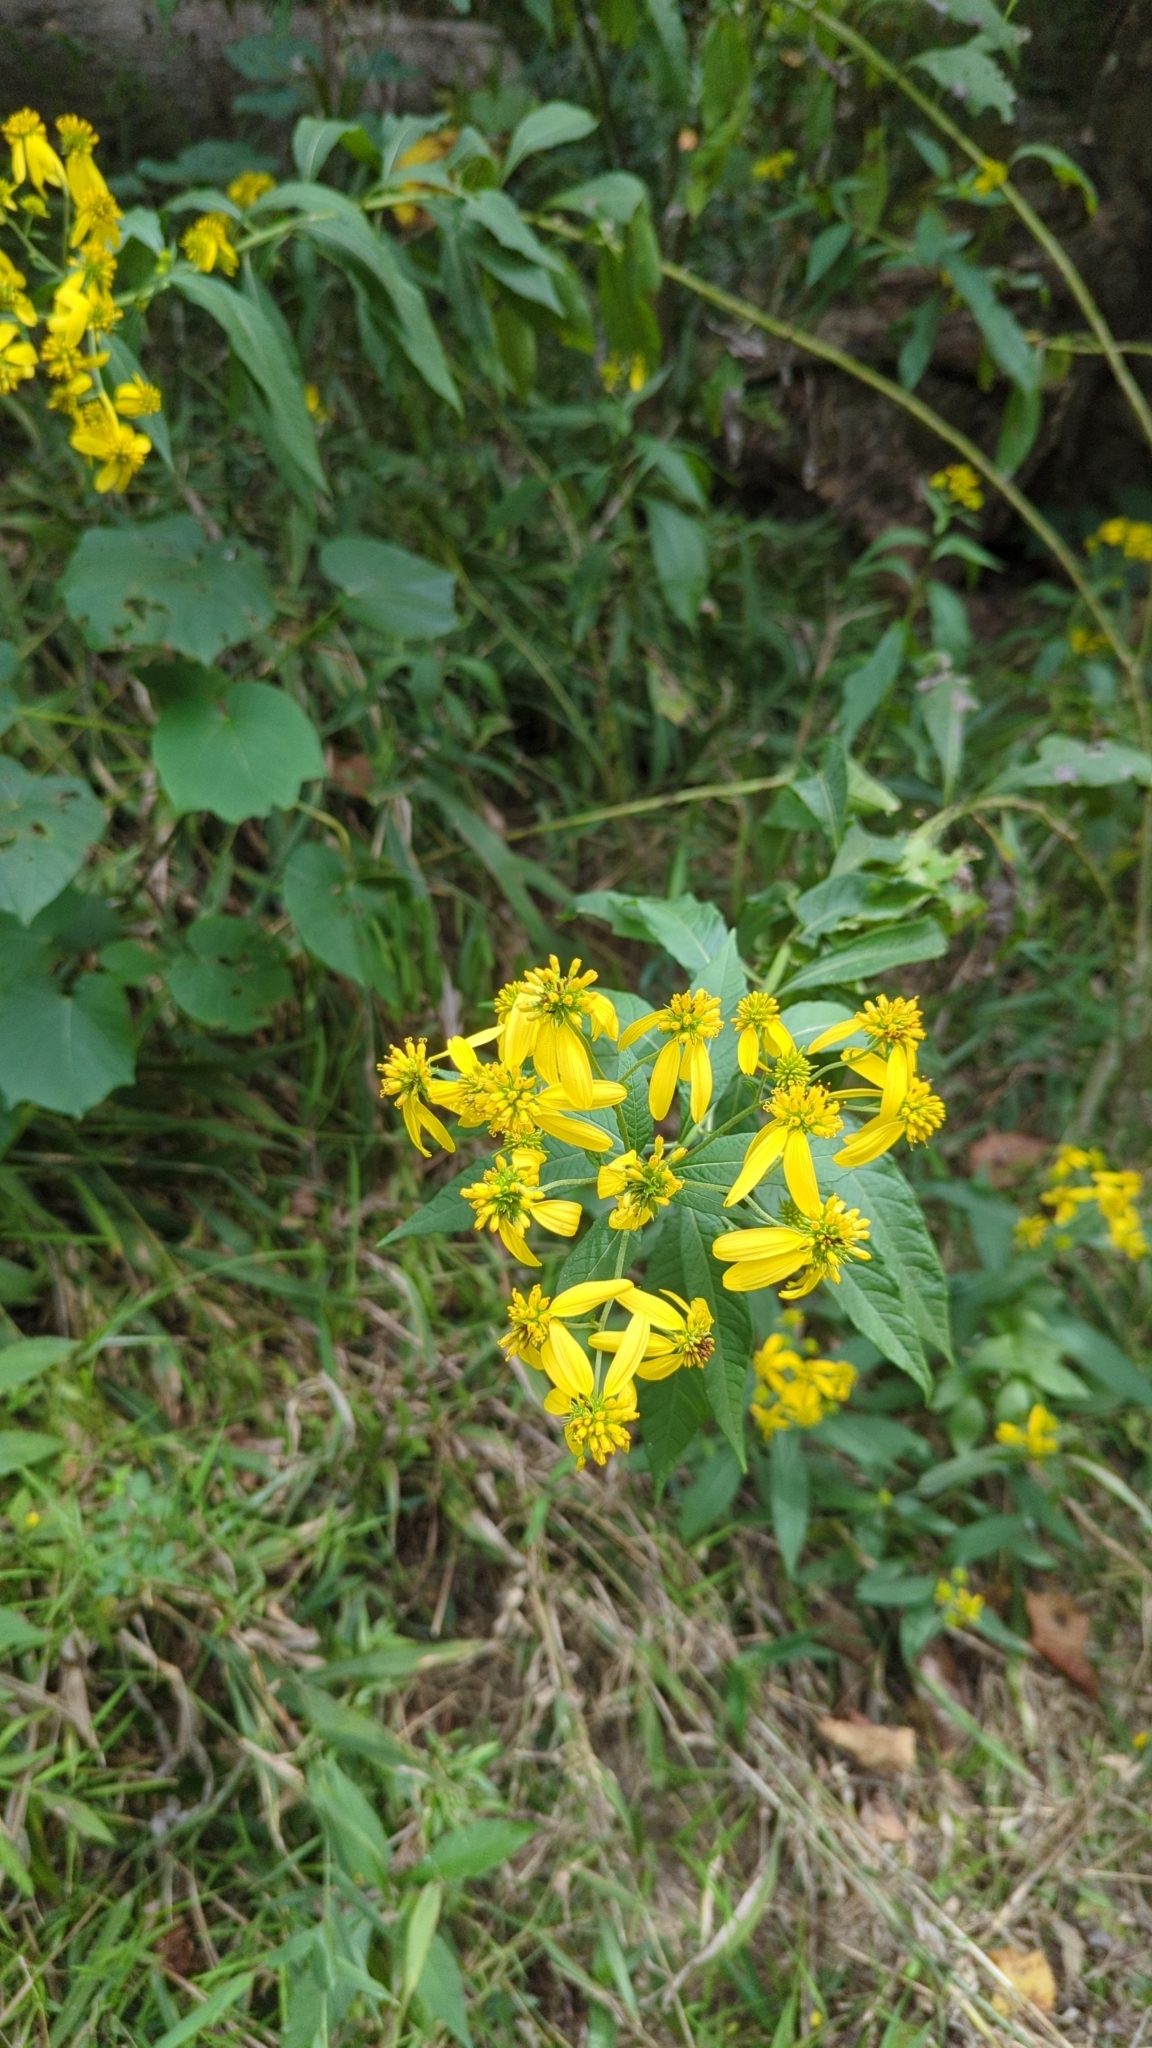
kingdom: Plantae
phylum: Tracheophyta
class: Magnoliopsida
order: Asterales
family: Asteraceae
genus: Verbesina
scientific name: Verbesina alternifolia
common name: Wingstem
